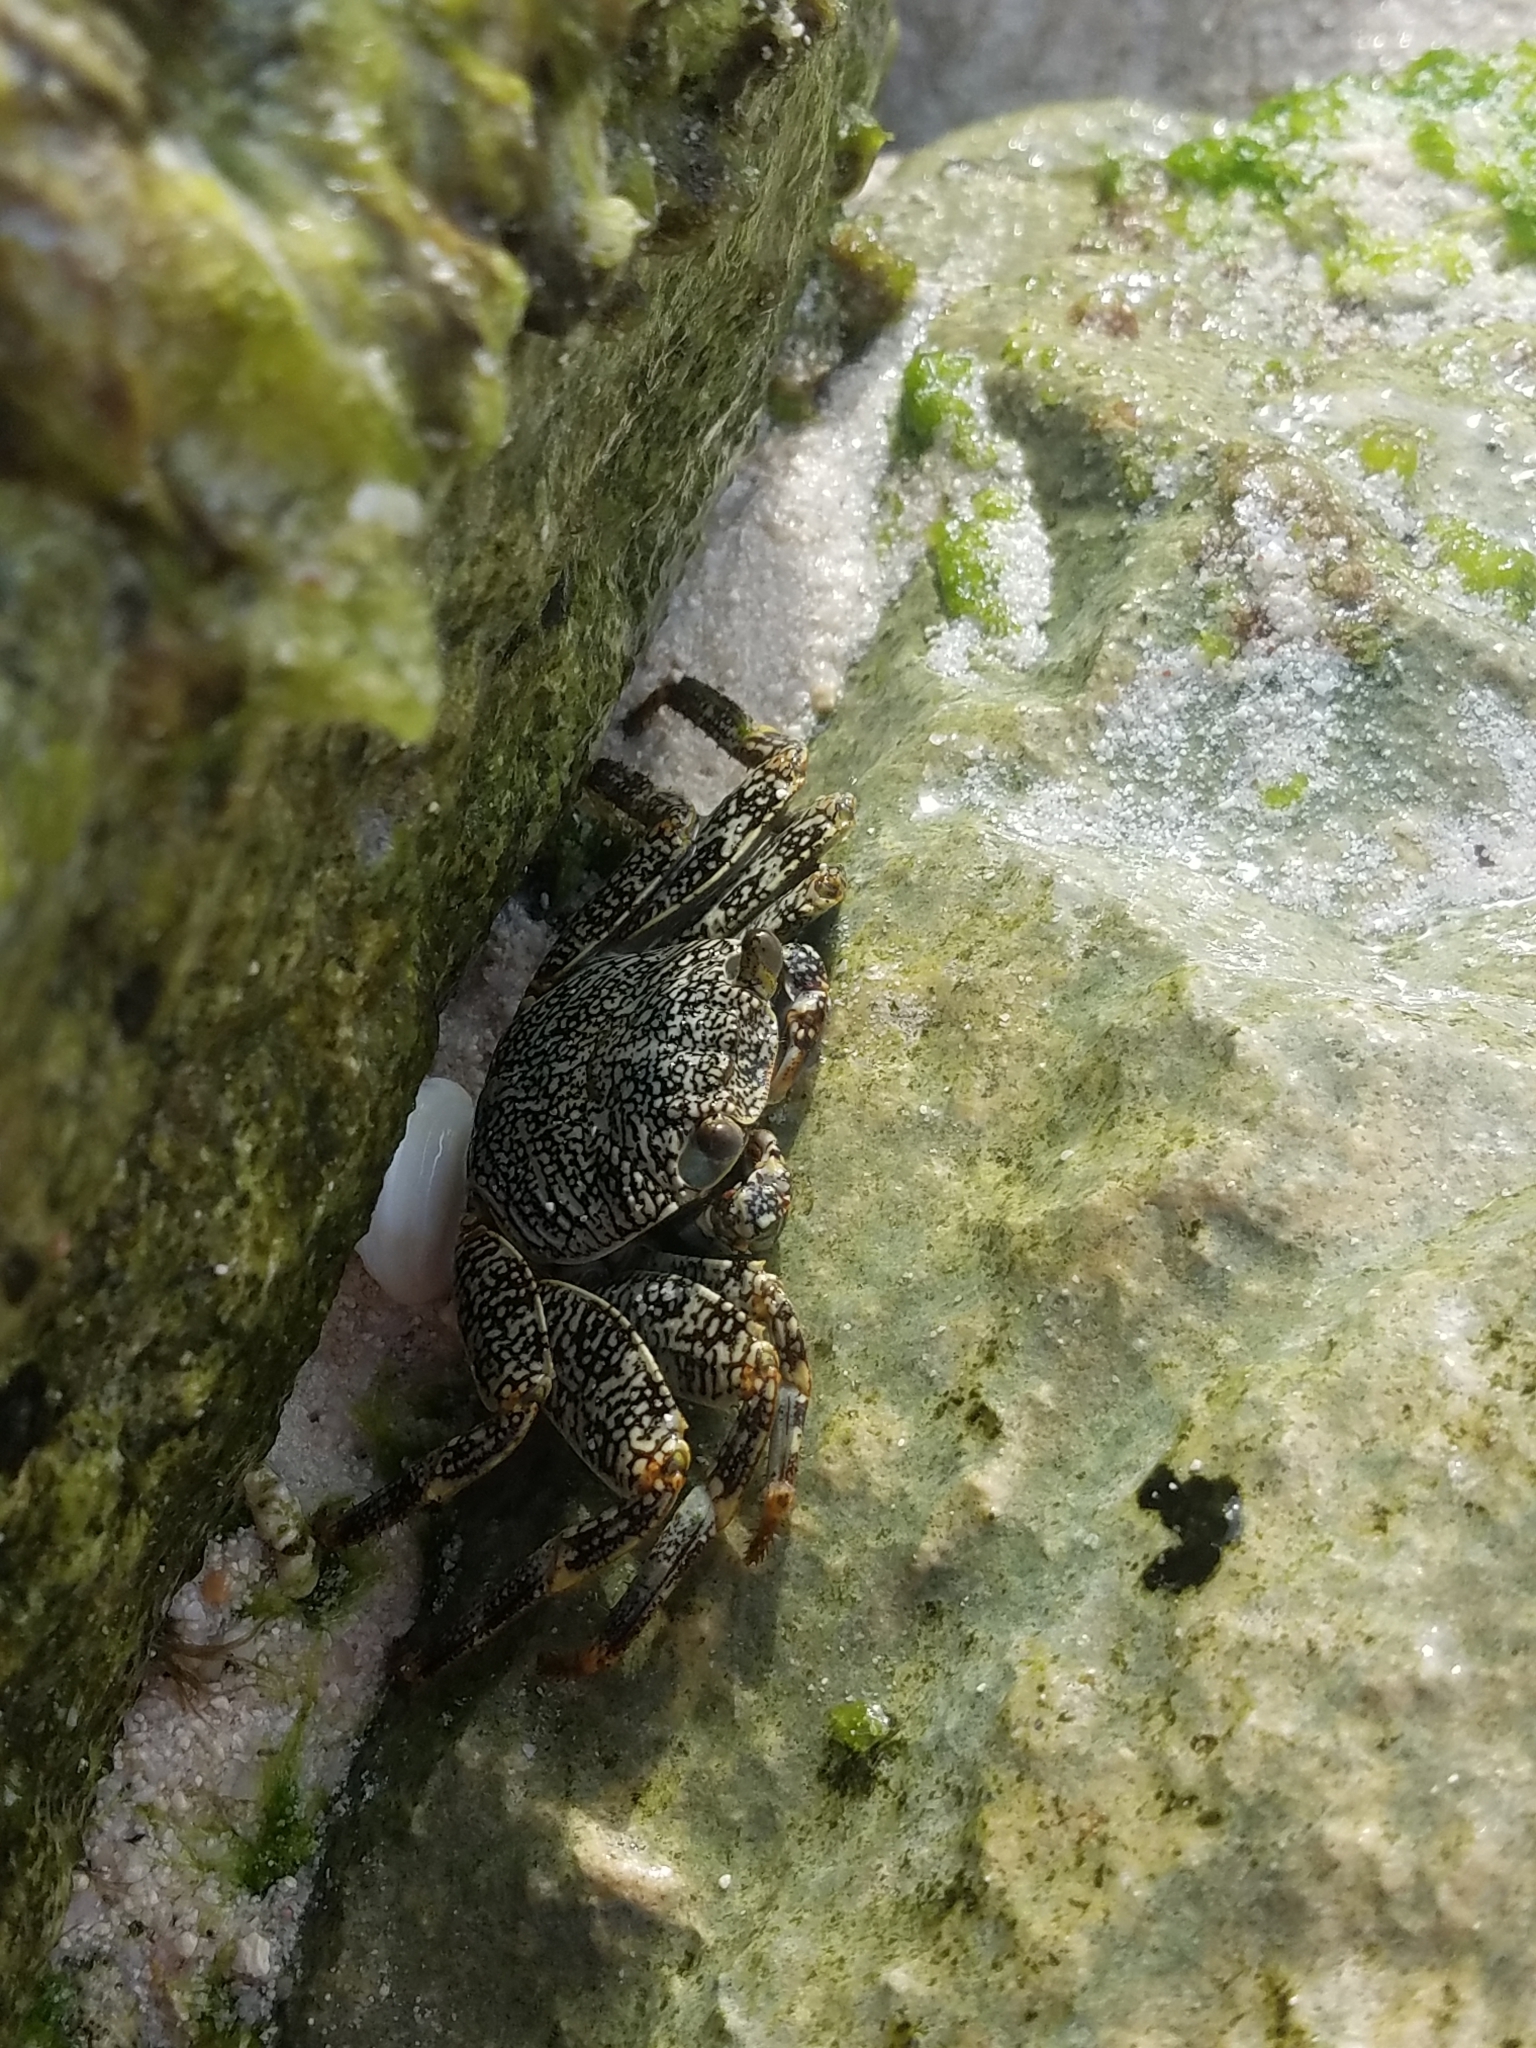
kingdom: Animalia
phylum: Arthropoda
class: Malacostraca
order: Decapoda
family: Grapsidae
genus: Grapsus
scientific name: Grapsus grapsus
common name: Sally lightfoot
